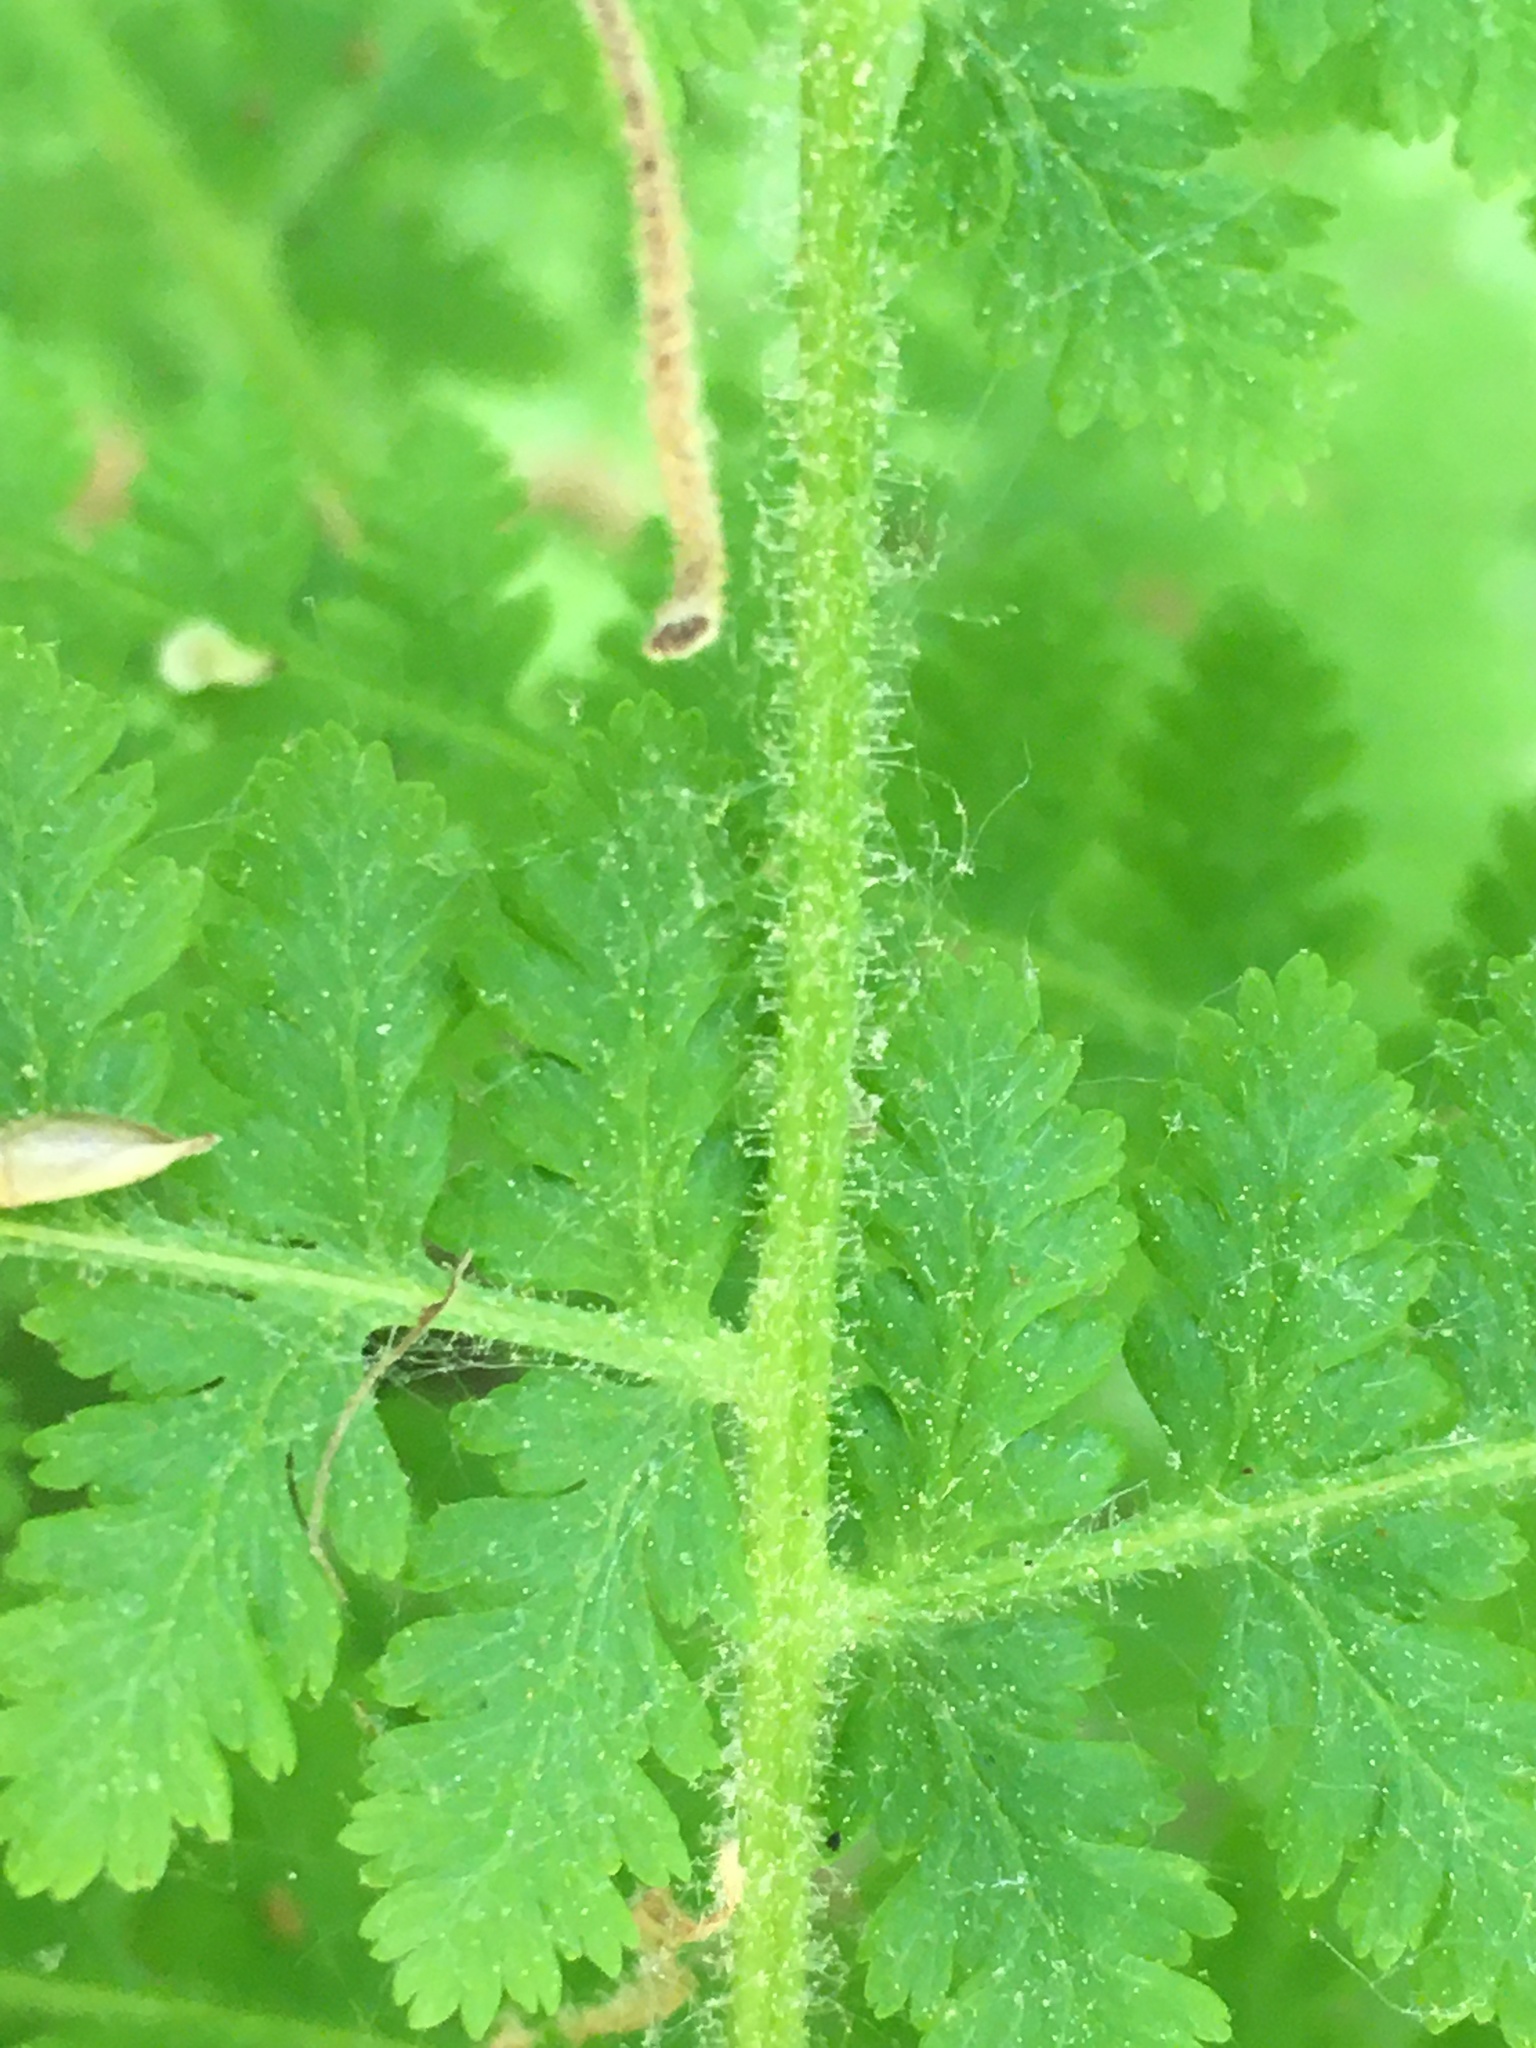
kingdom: Plantae
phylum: Tracheophyta
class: Polypodiopsida
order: Polypodiales
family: Dennstaedtiaceae
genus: Sitobolium
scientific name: Sitobolium punctilobum
